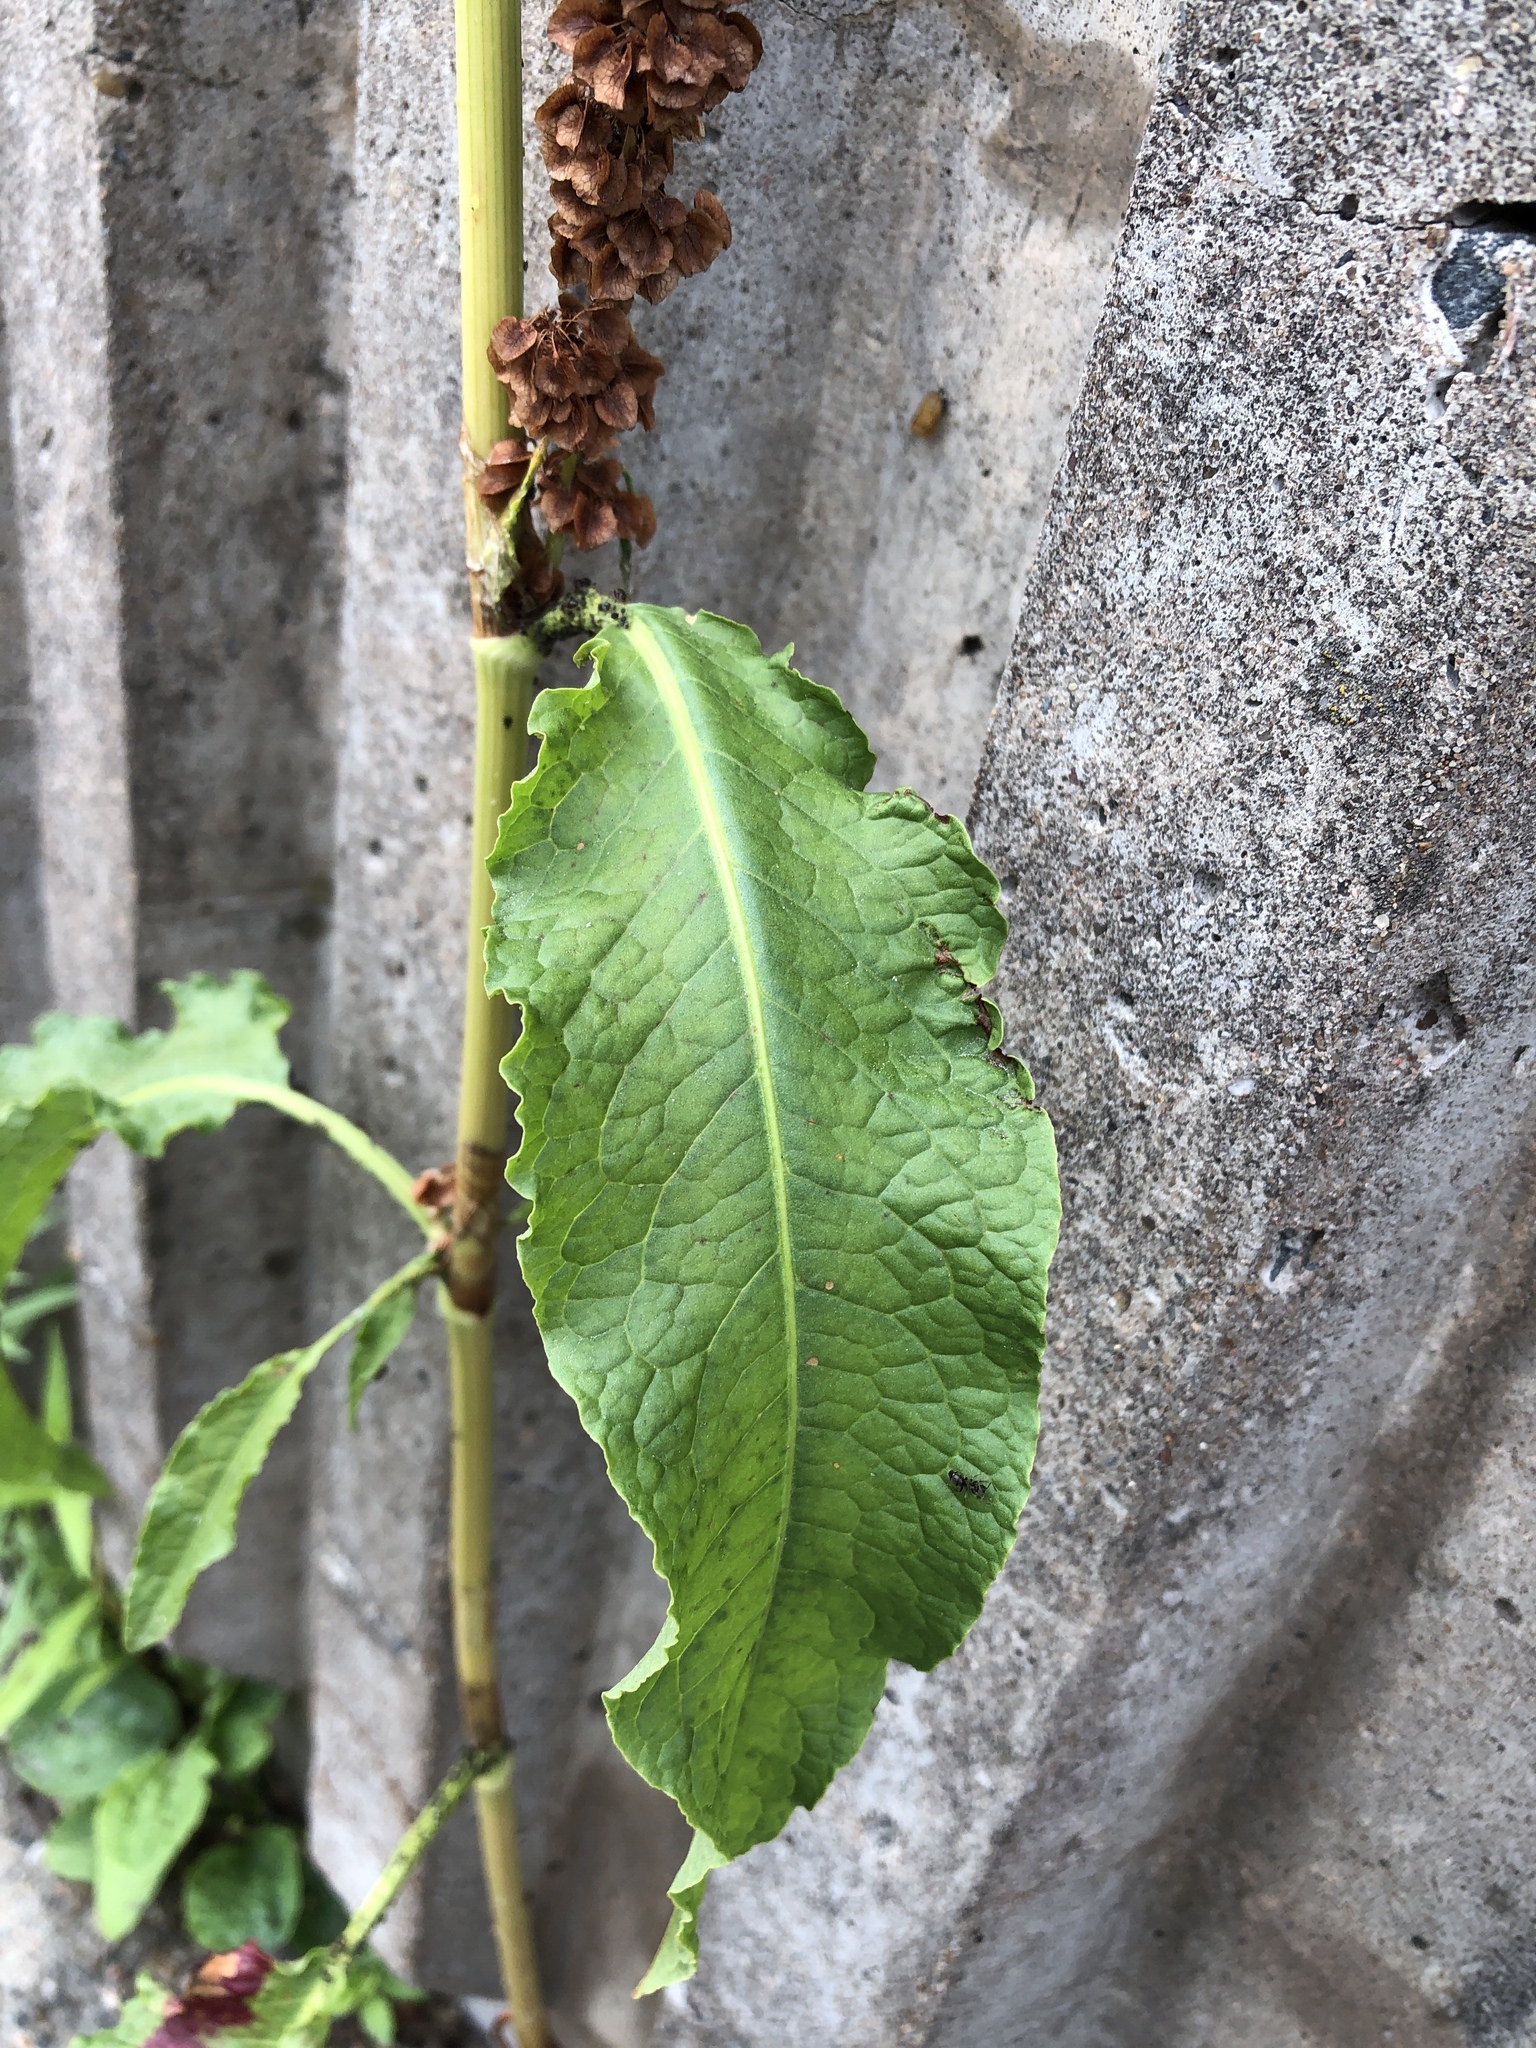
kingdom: Plantae
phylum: Tracheophyta
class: Magnoliopsida
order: Caryophyllales
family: Polygonaceae
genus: Rumex
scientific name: Rumex longifolius
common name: Dooryard dock
